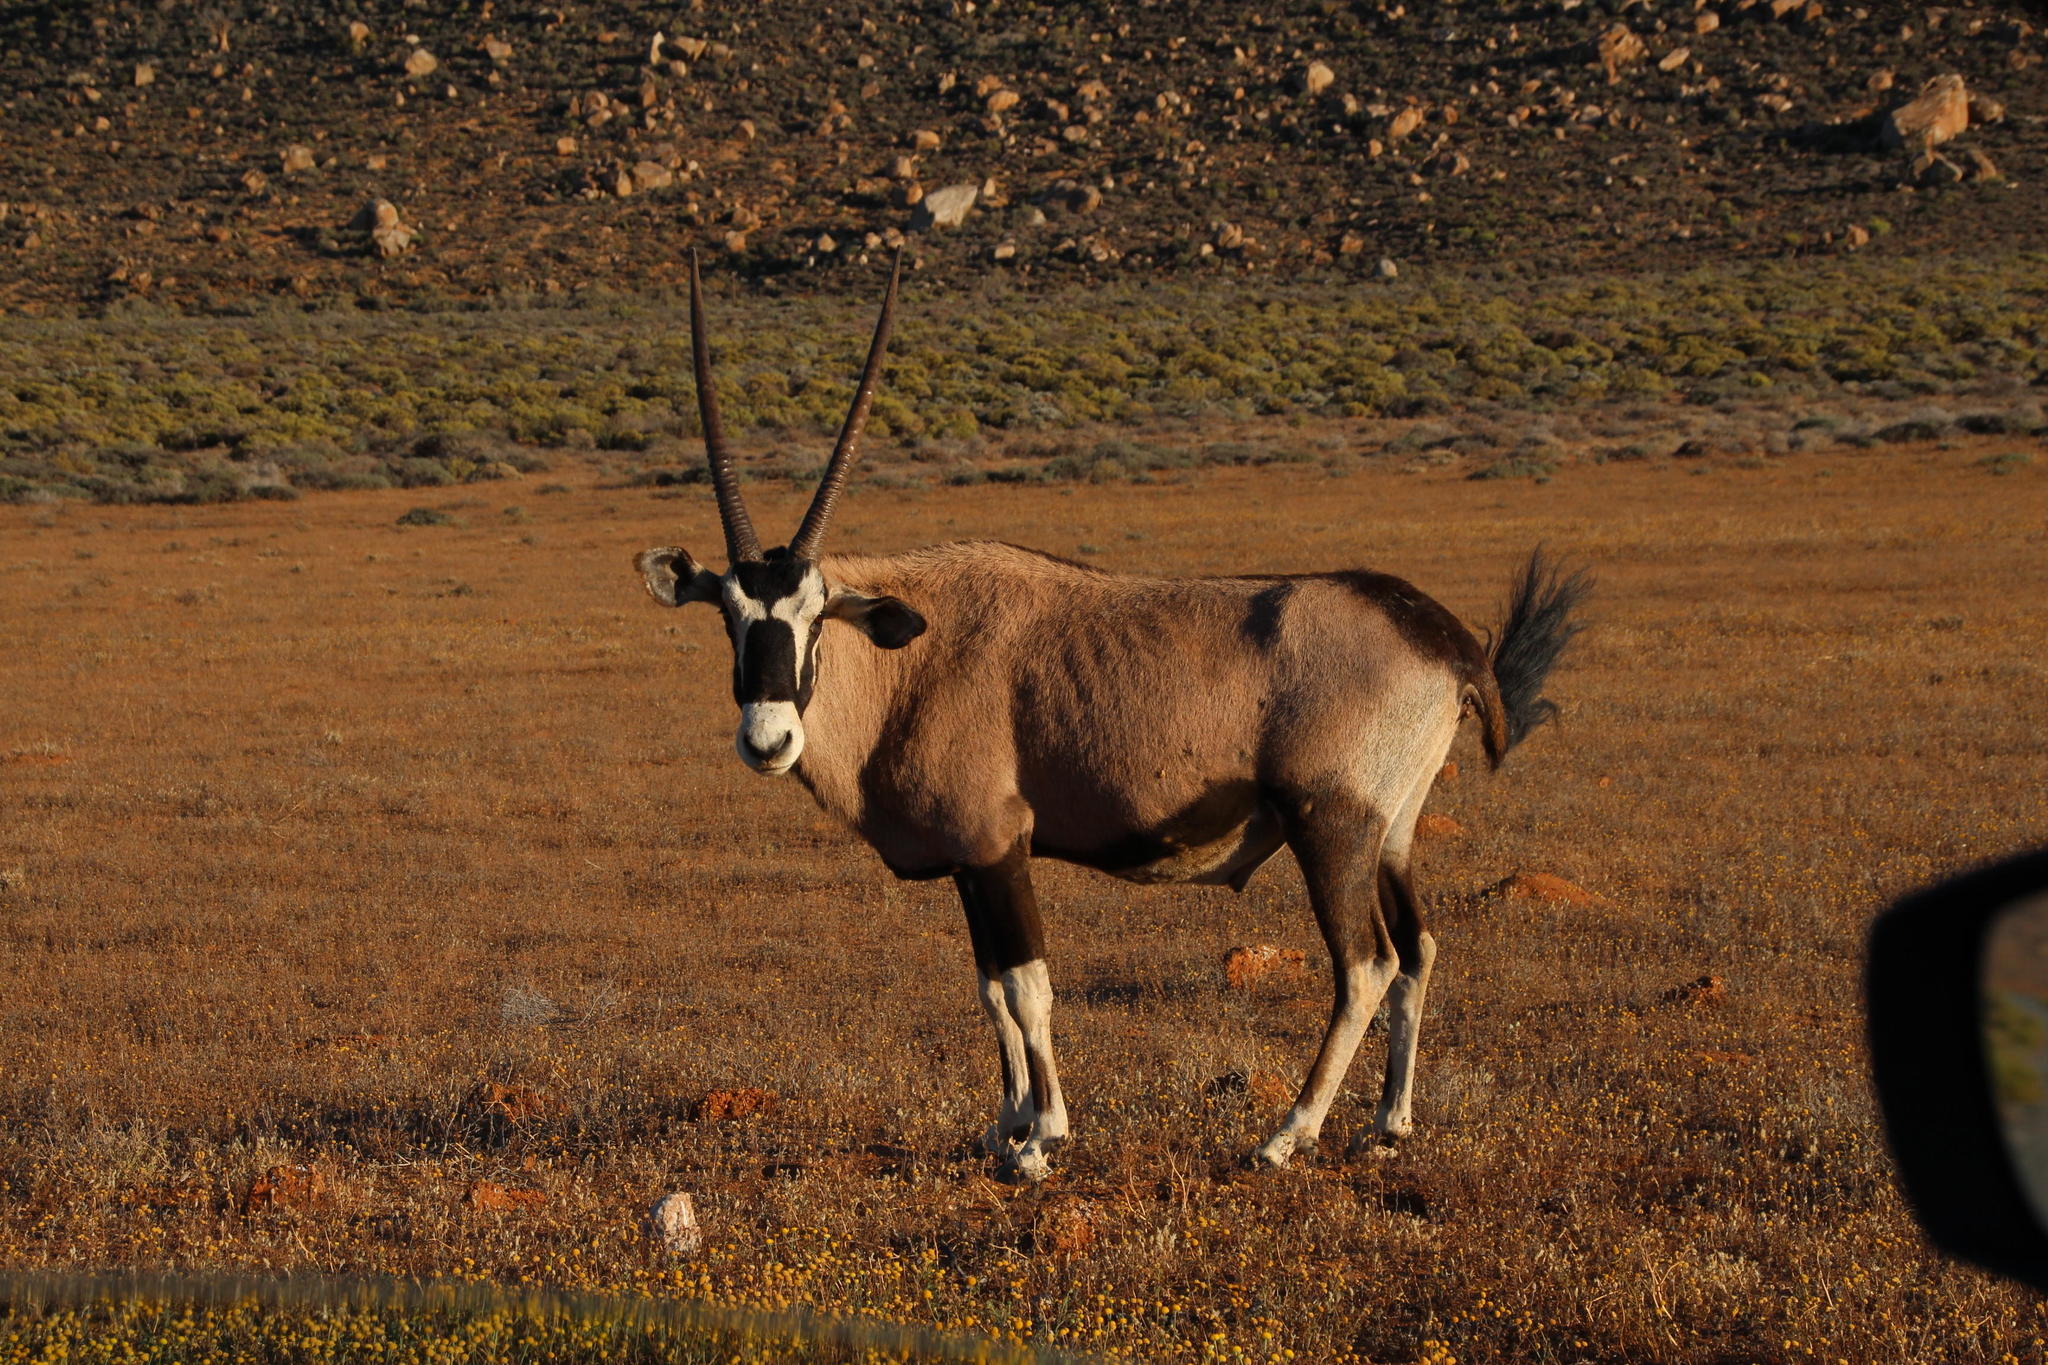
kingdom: Animalia
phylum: Chordata
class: Mammalia
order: Artiodactyla
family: Bovidae
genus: Oryx
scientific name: Oryx gazella
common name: Gemsbok
